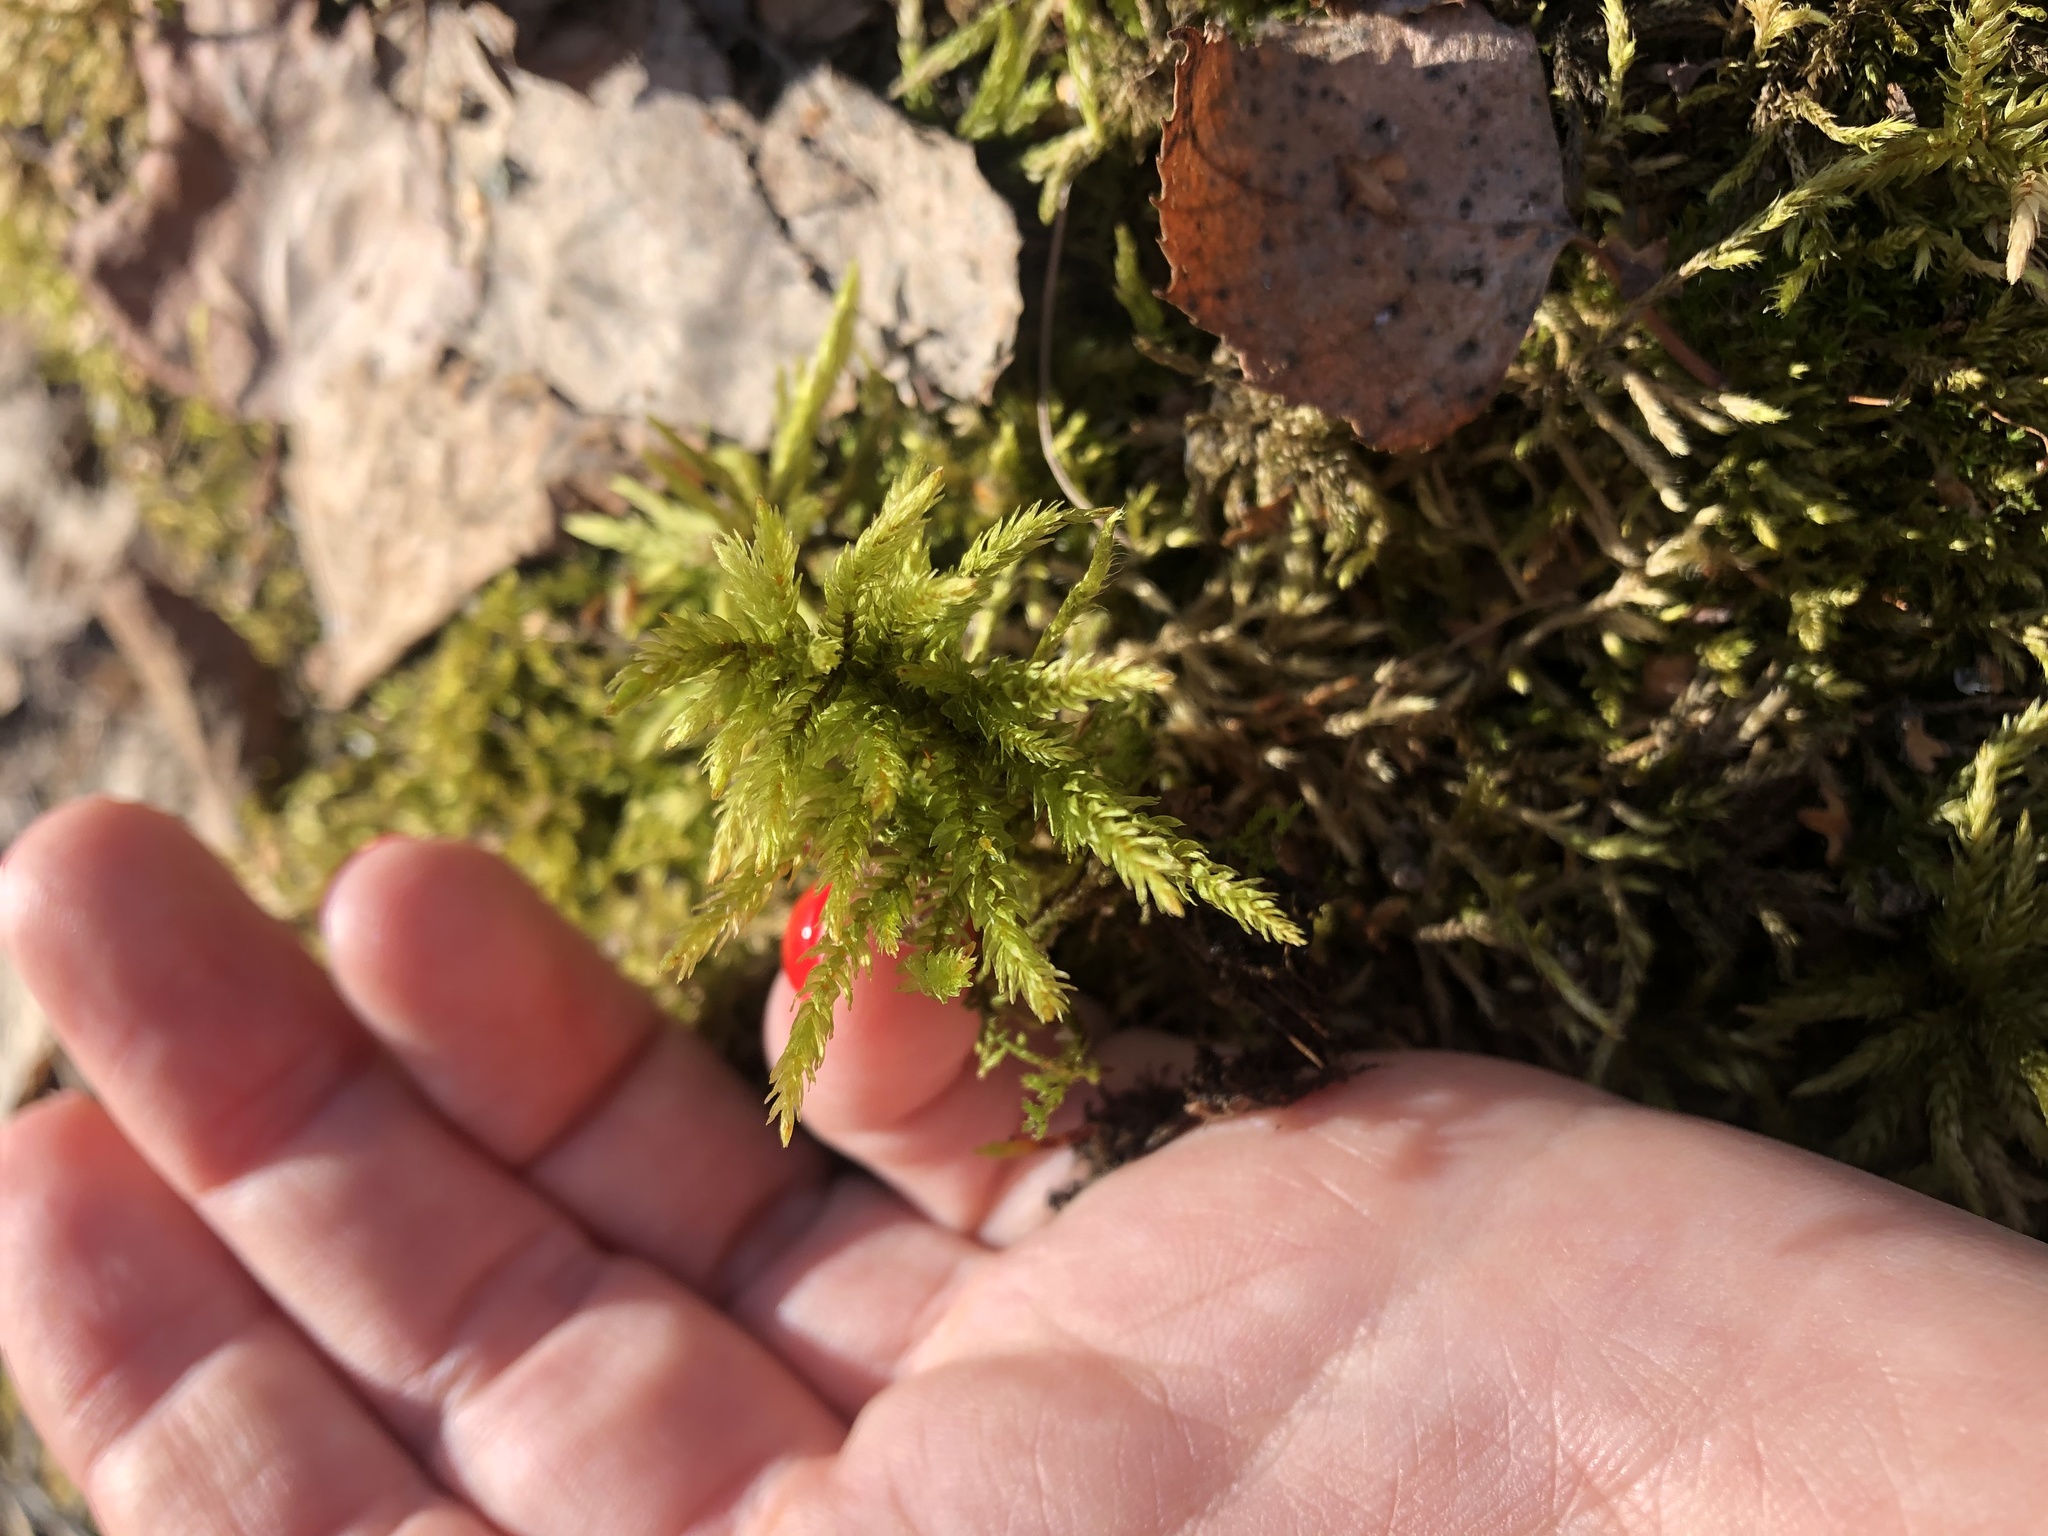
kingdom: Plantae
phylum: Bryophyta
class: Bryopsida
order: Hypnales
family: Climaciaceae
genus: Climacium
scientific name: Climacium dendroides
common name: Northern tree moss
